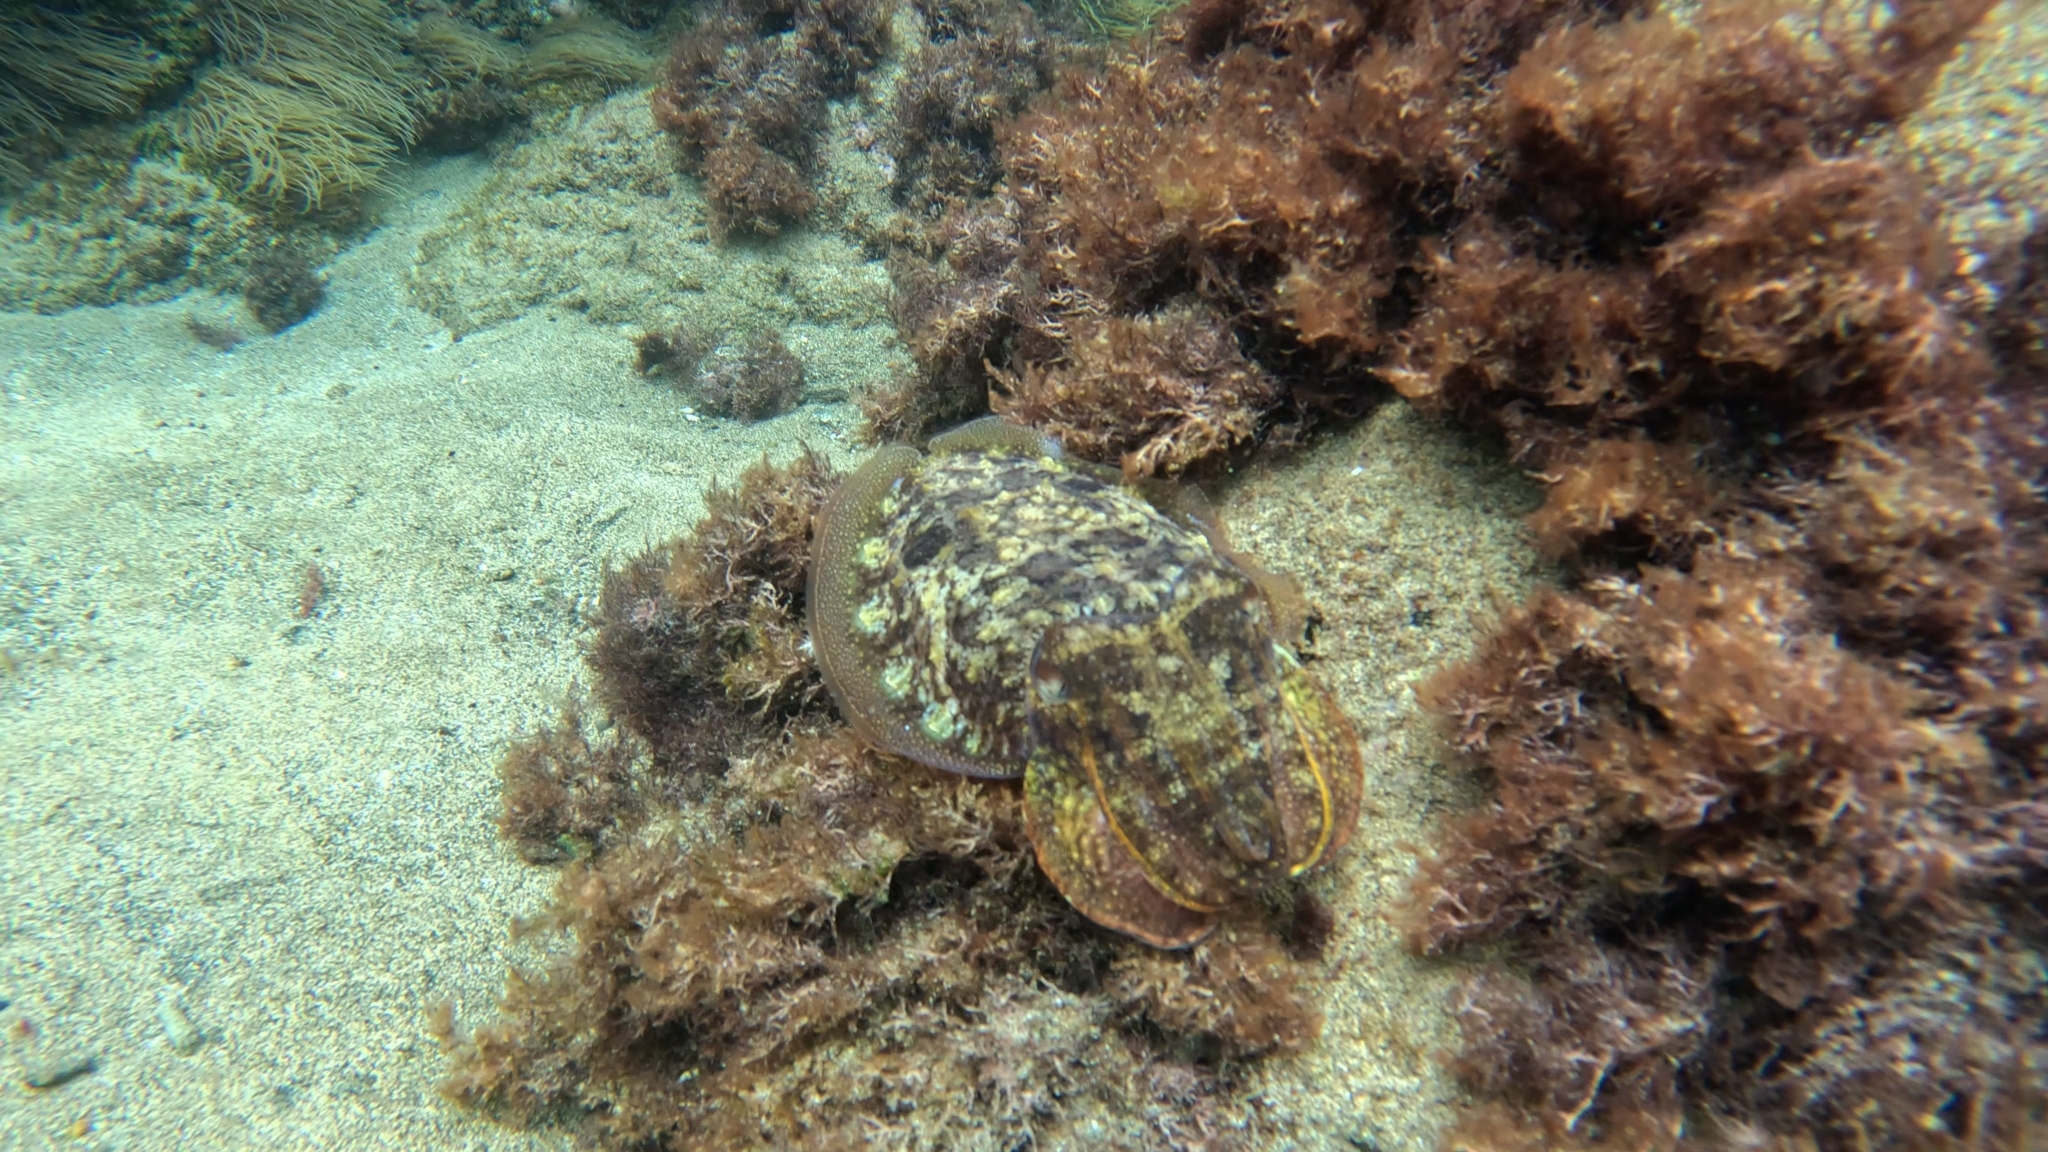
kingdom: Animalia
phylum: Mollusca
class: Cephalopoda
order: Sepiida
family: Sepiidae
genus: Sepia
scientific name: Sepia officinalis
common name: Common cuttlefish
